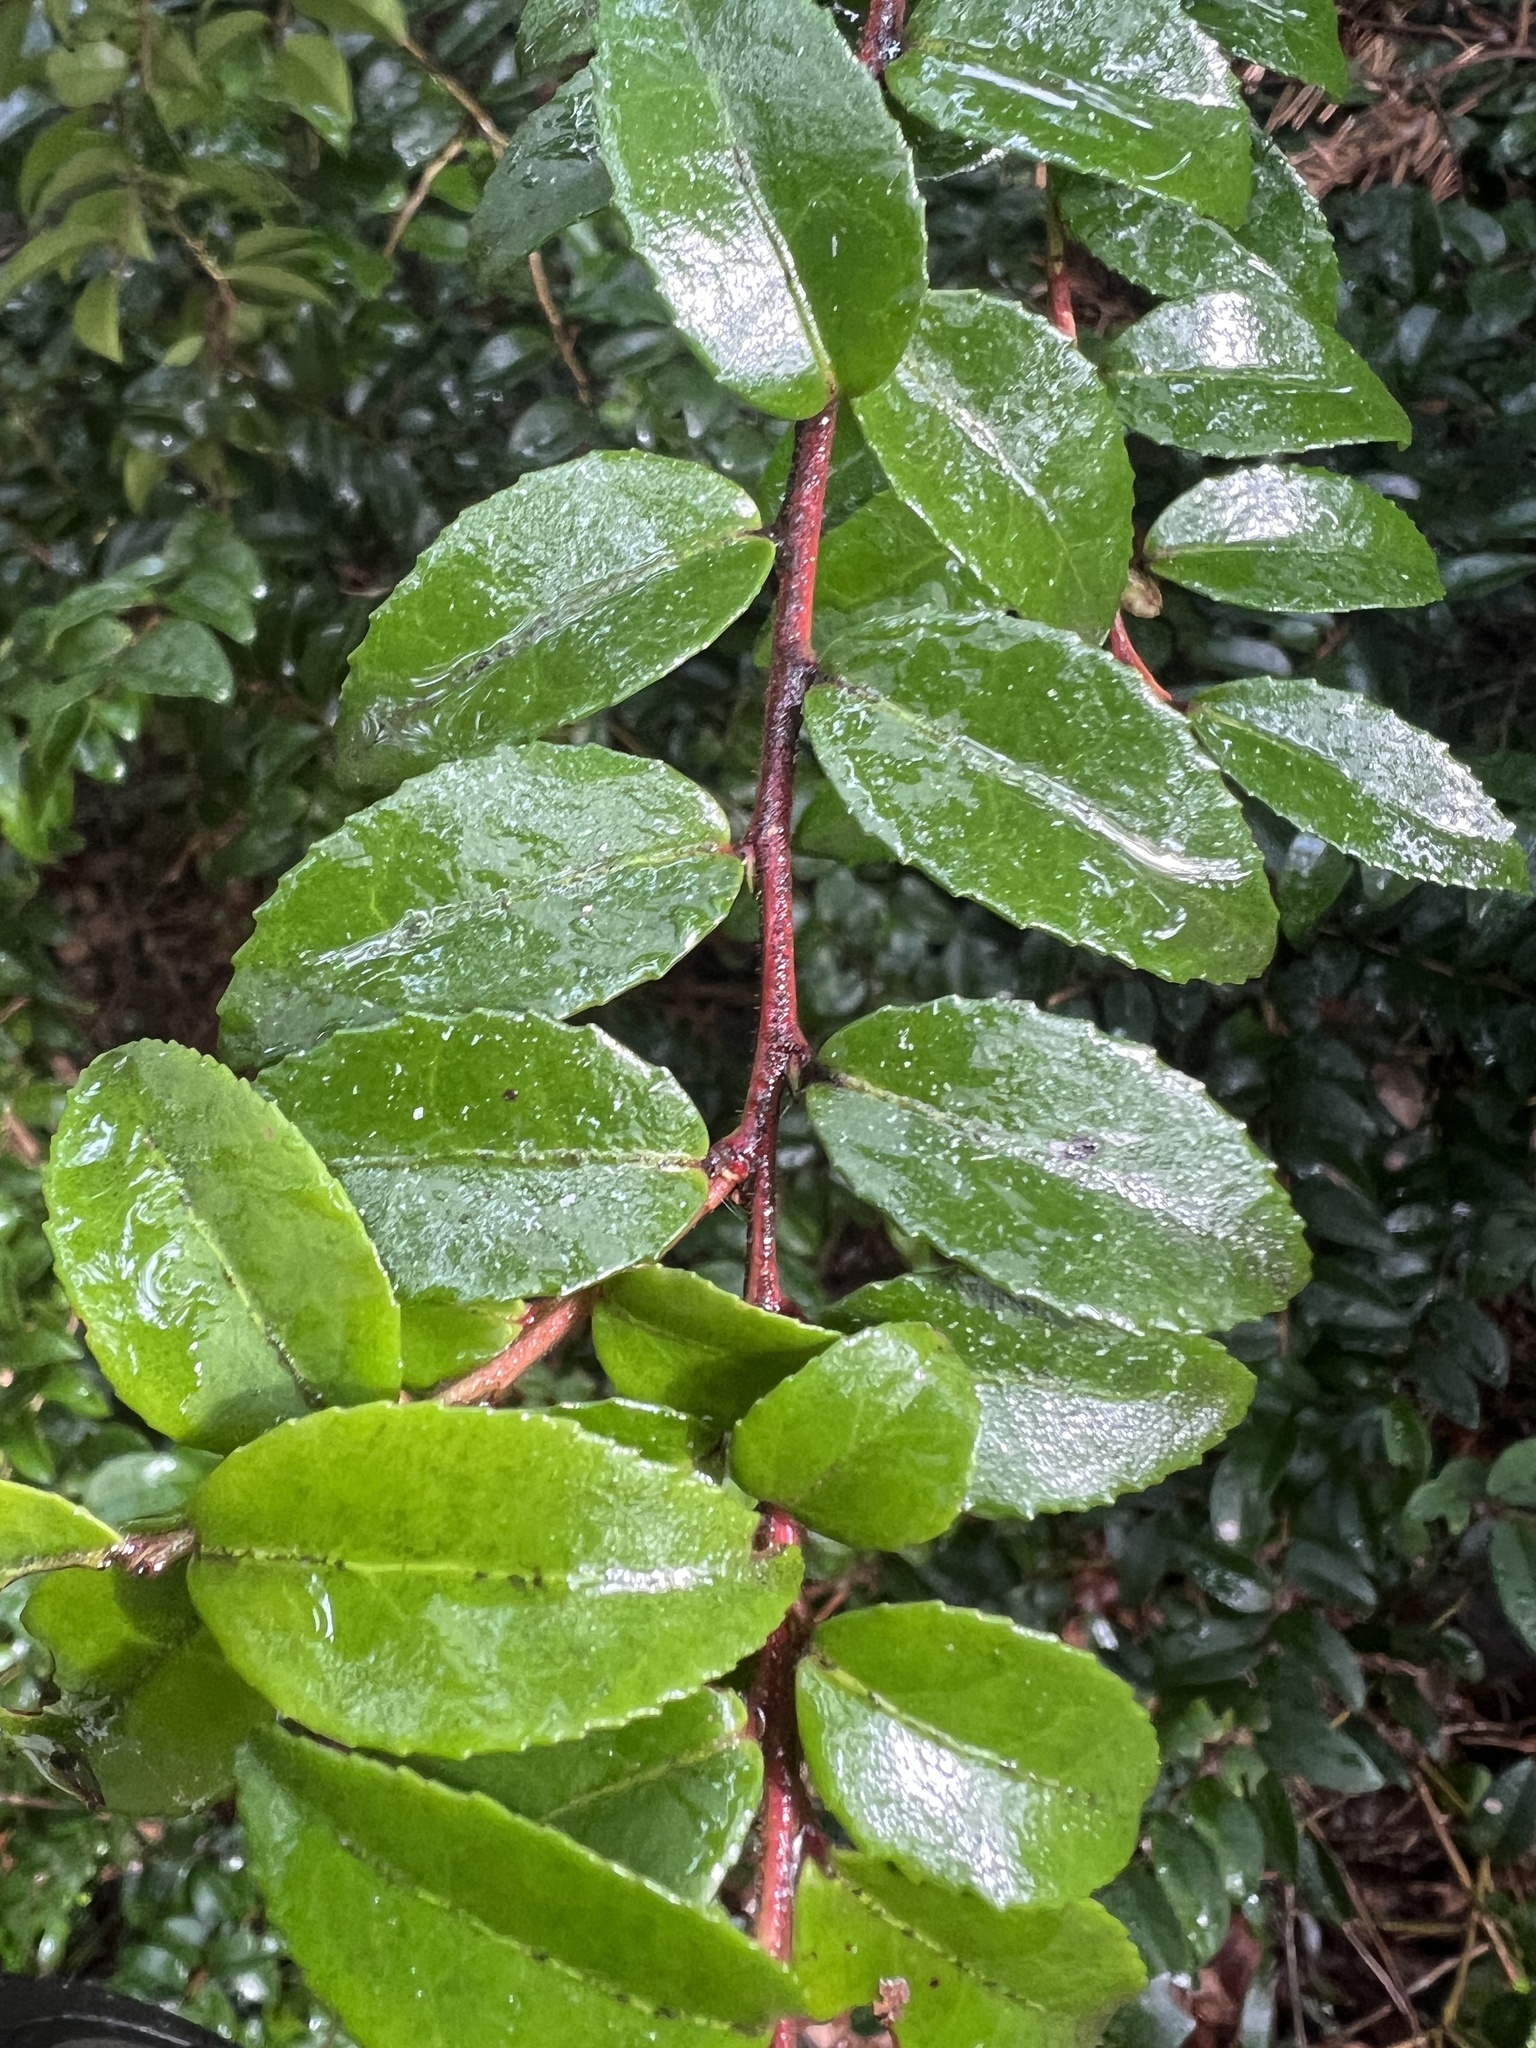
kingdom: Plantae
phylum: Tracheophyta
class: Magnoliopsida
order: Ericales
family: Ericaceae
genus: Vaccinium
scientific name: Vaccinium ovatum
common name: California-huckleberry
